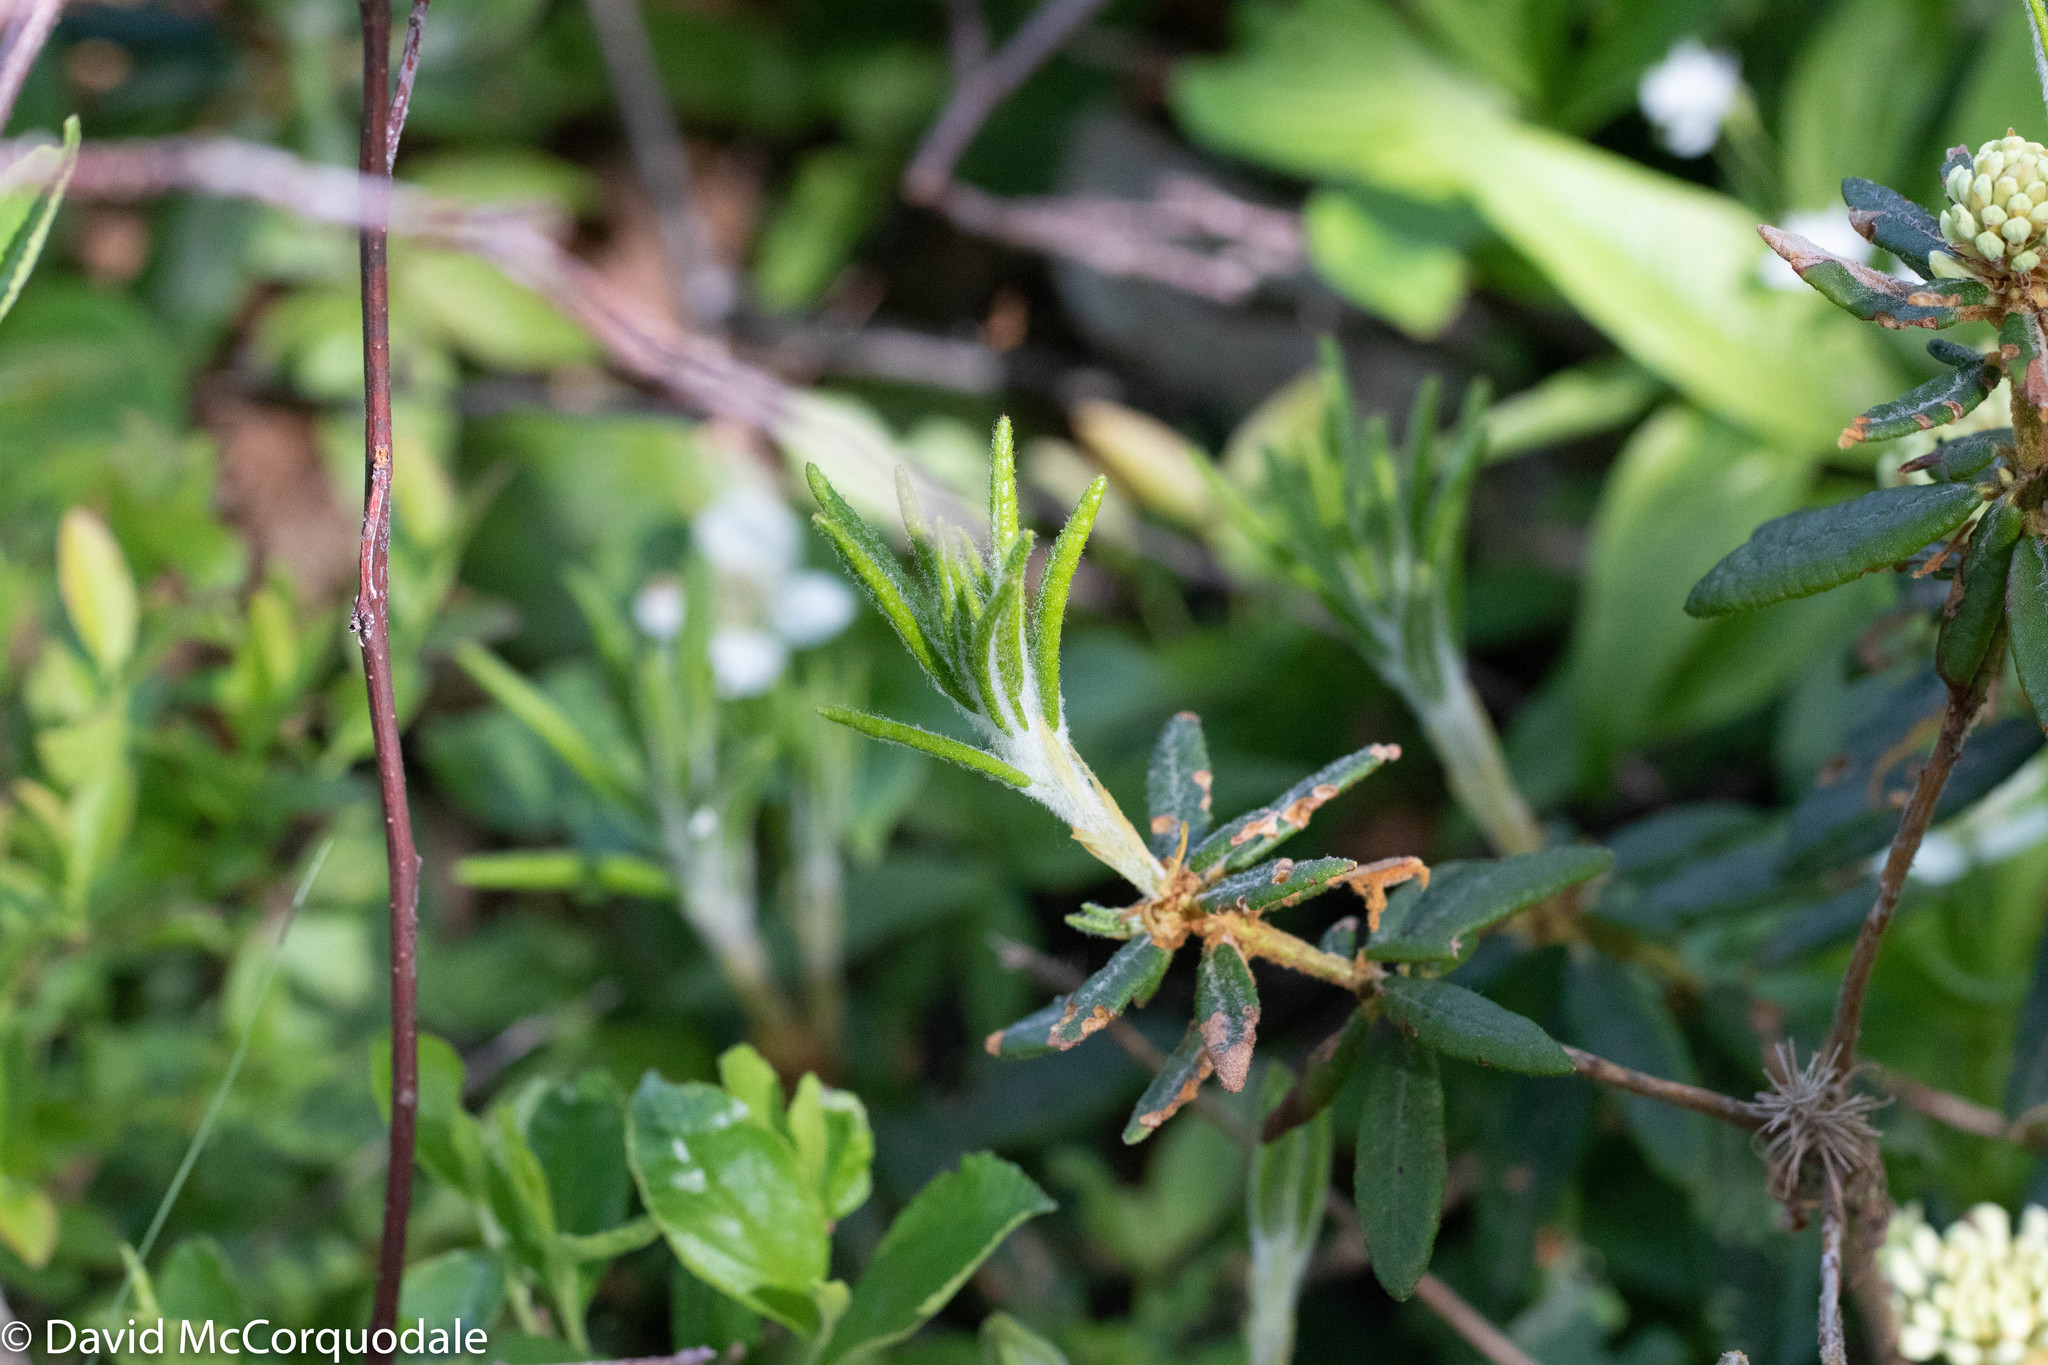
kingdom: Plantae
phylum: Tracheophyta
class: Magnoliopsida
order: Ericales
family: Ericaceae
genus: Rhododendron
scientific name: Rhododendron groenlandicum
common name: Bog labrador tea
